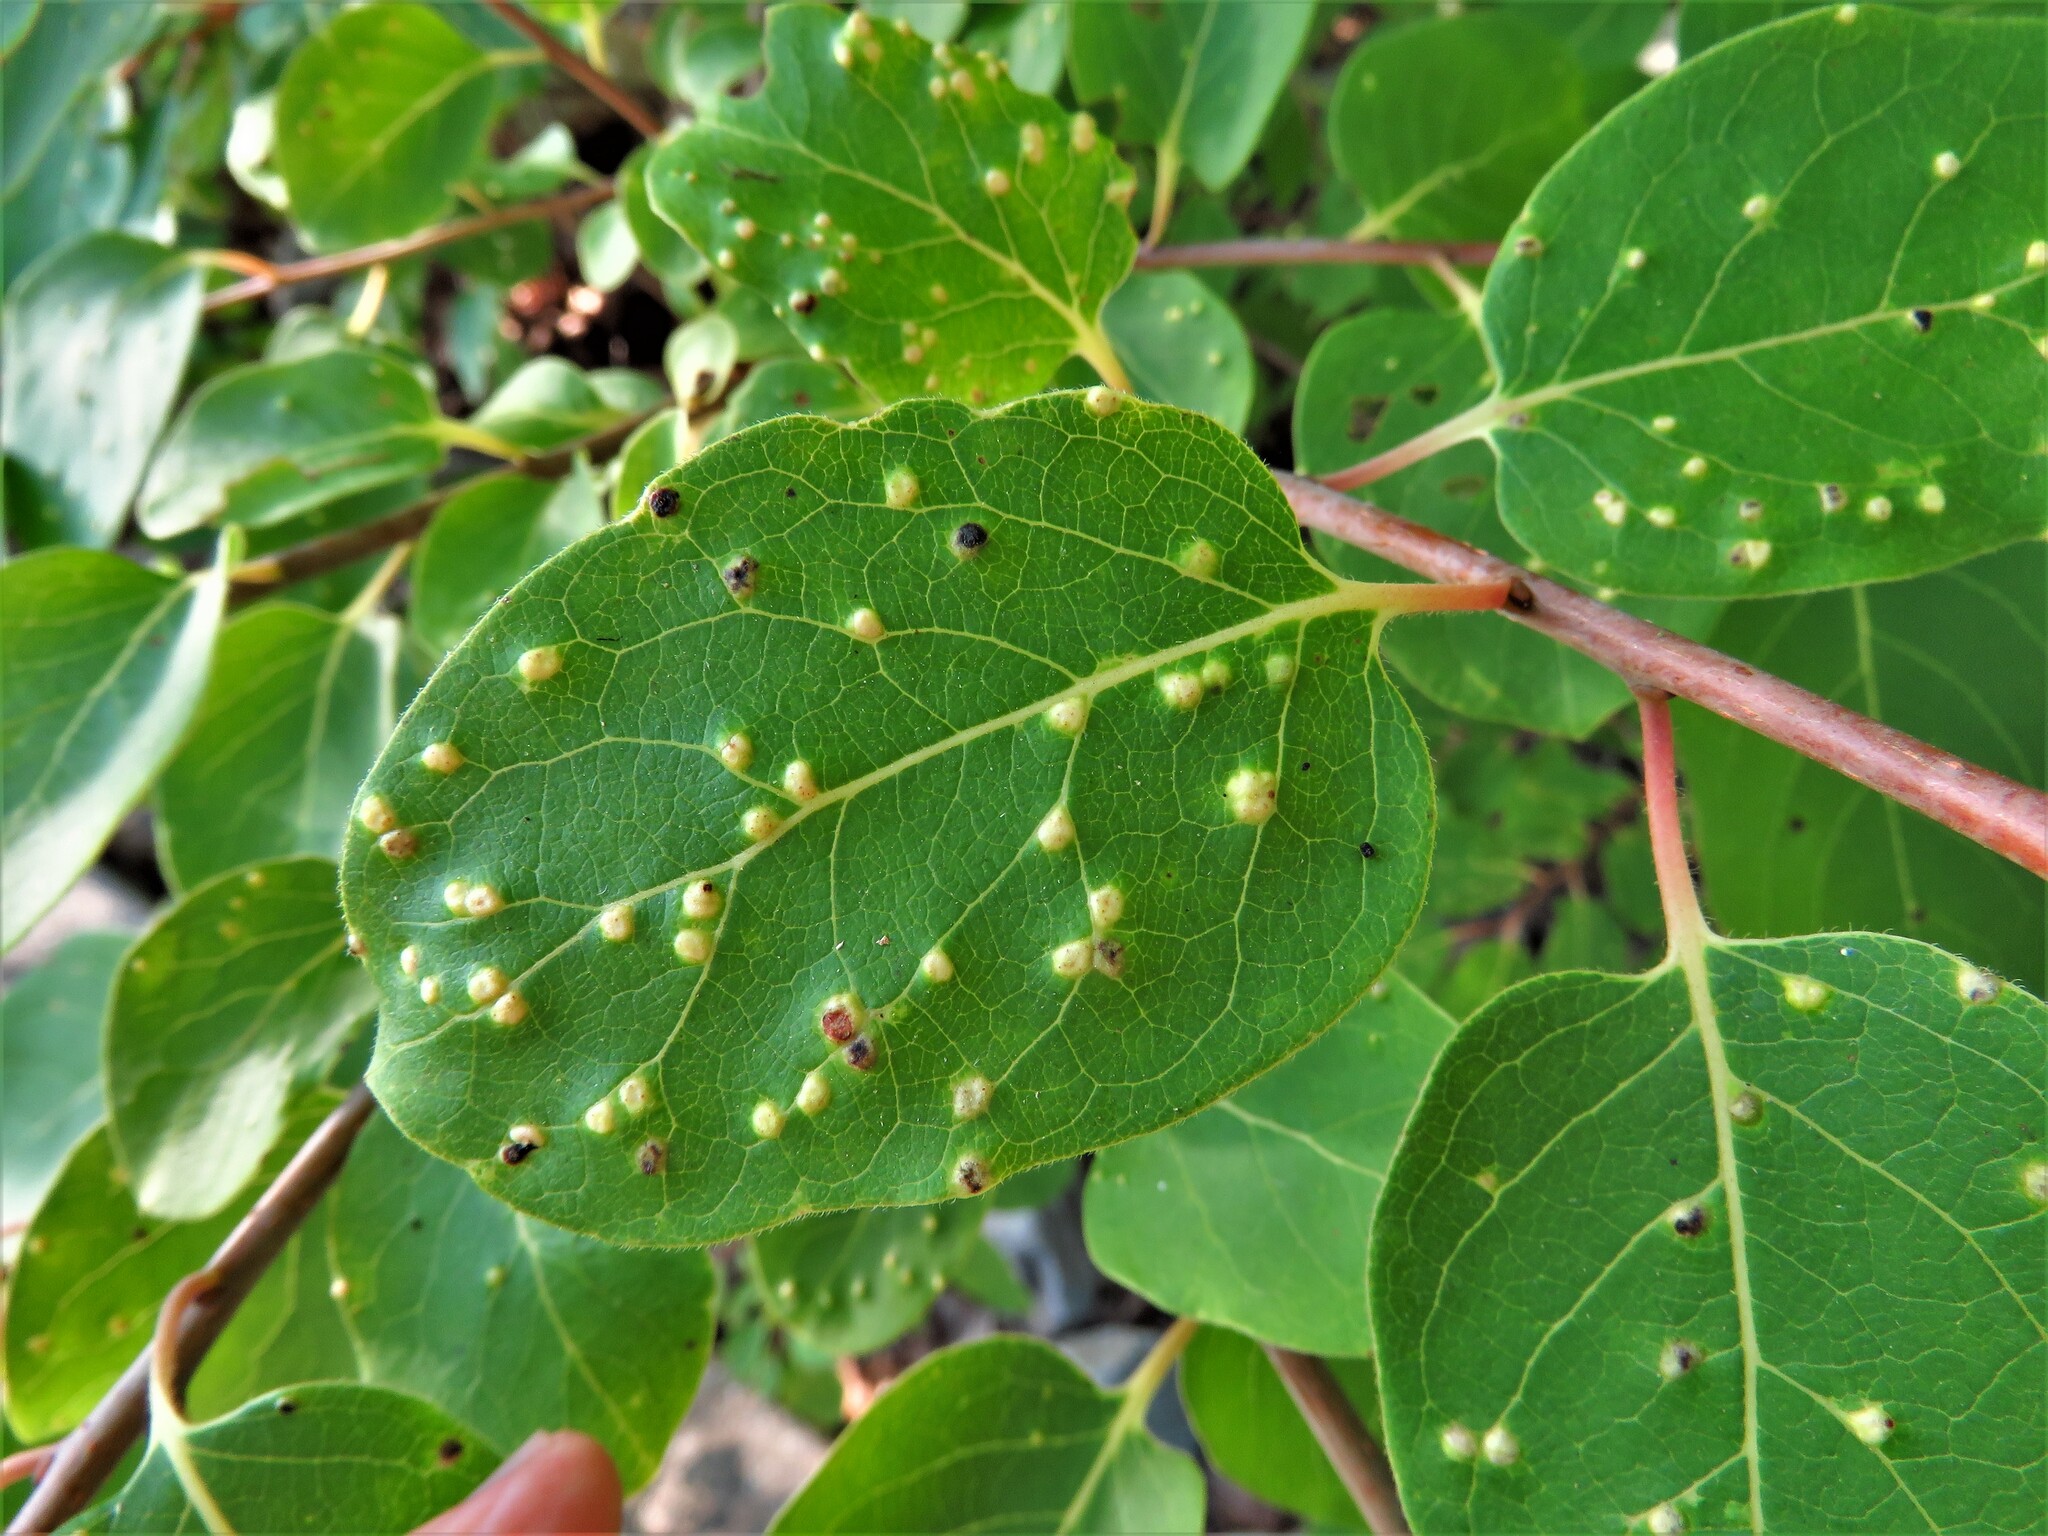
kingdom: Animalia
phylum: Arthropoda
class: Arachnida
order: Trombidiformes
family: Eriophyidae
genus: Aceria
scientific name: Aceria
